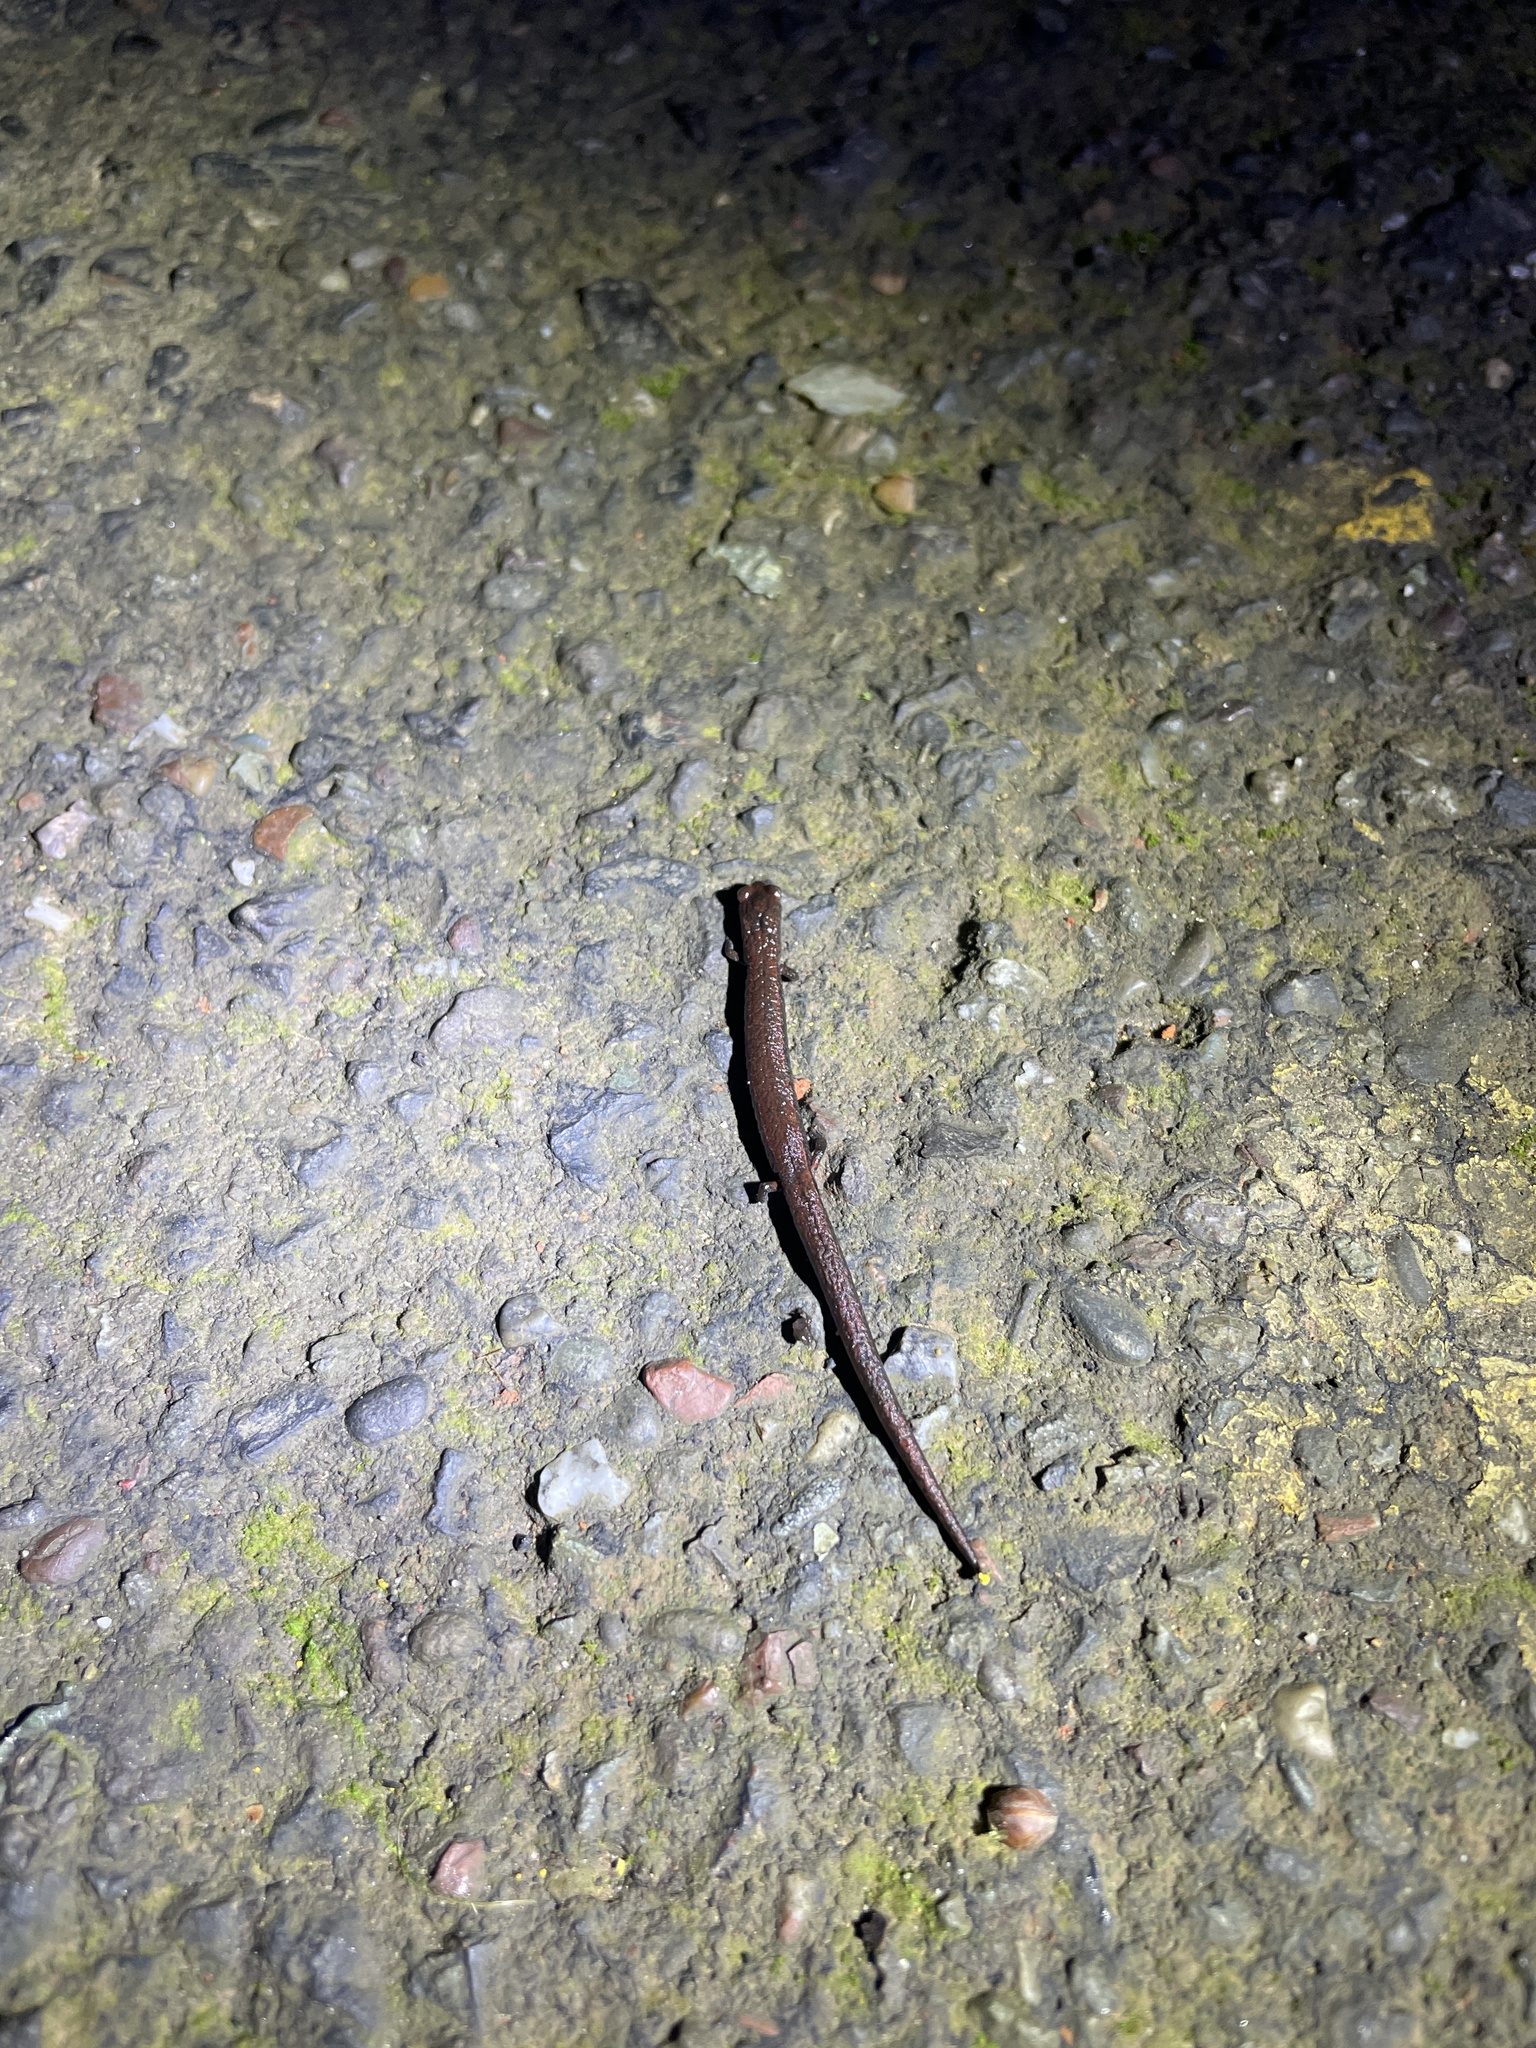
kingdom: Animalia
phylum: Chordata
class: Amphibia
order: Caudata
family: Plethodontidae
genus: Batrachoseps
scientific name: Batrachoseps attenuatus
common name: California slender salamander
